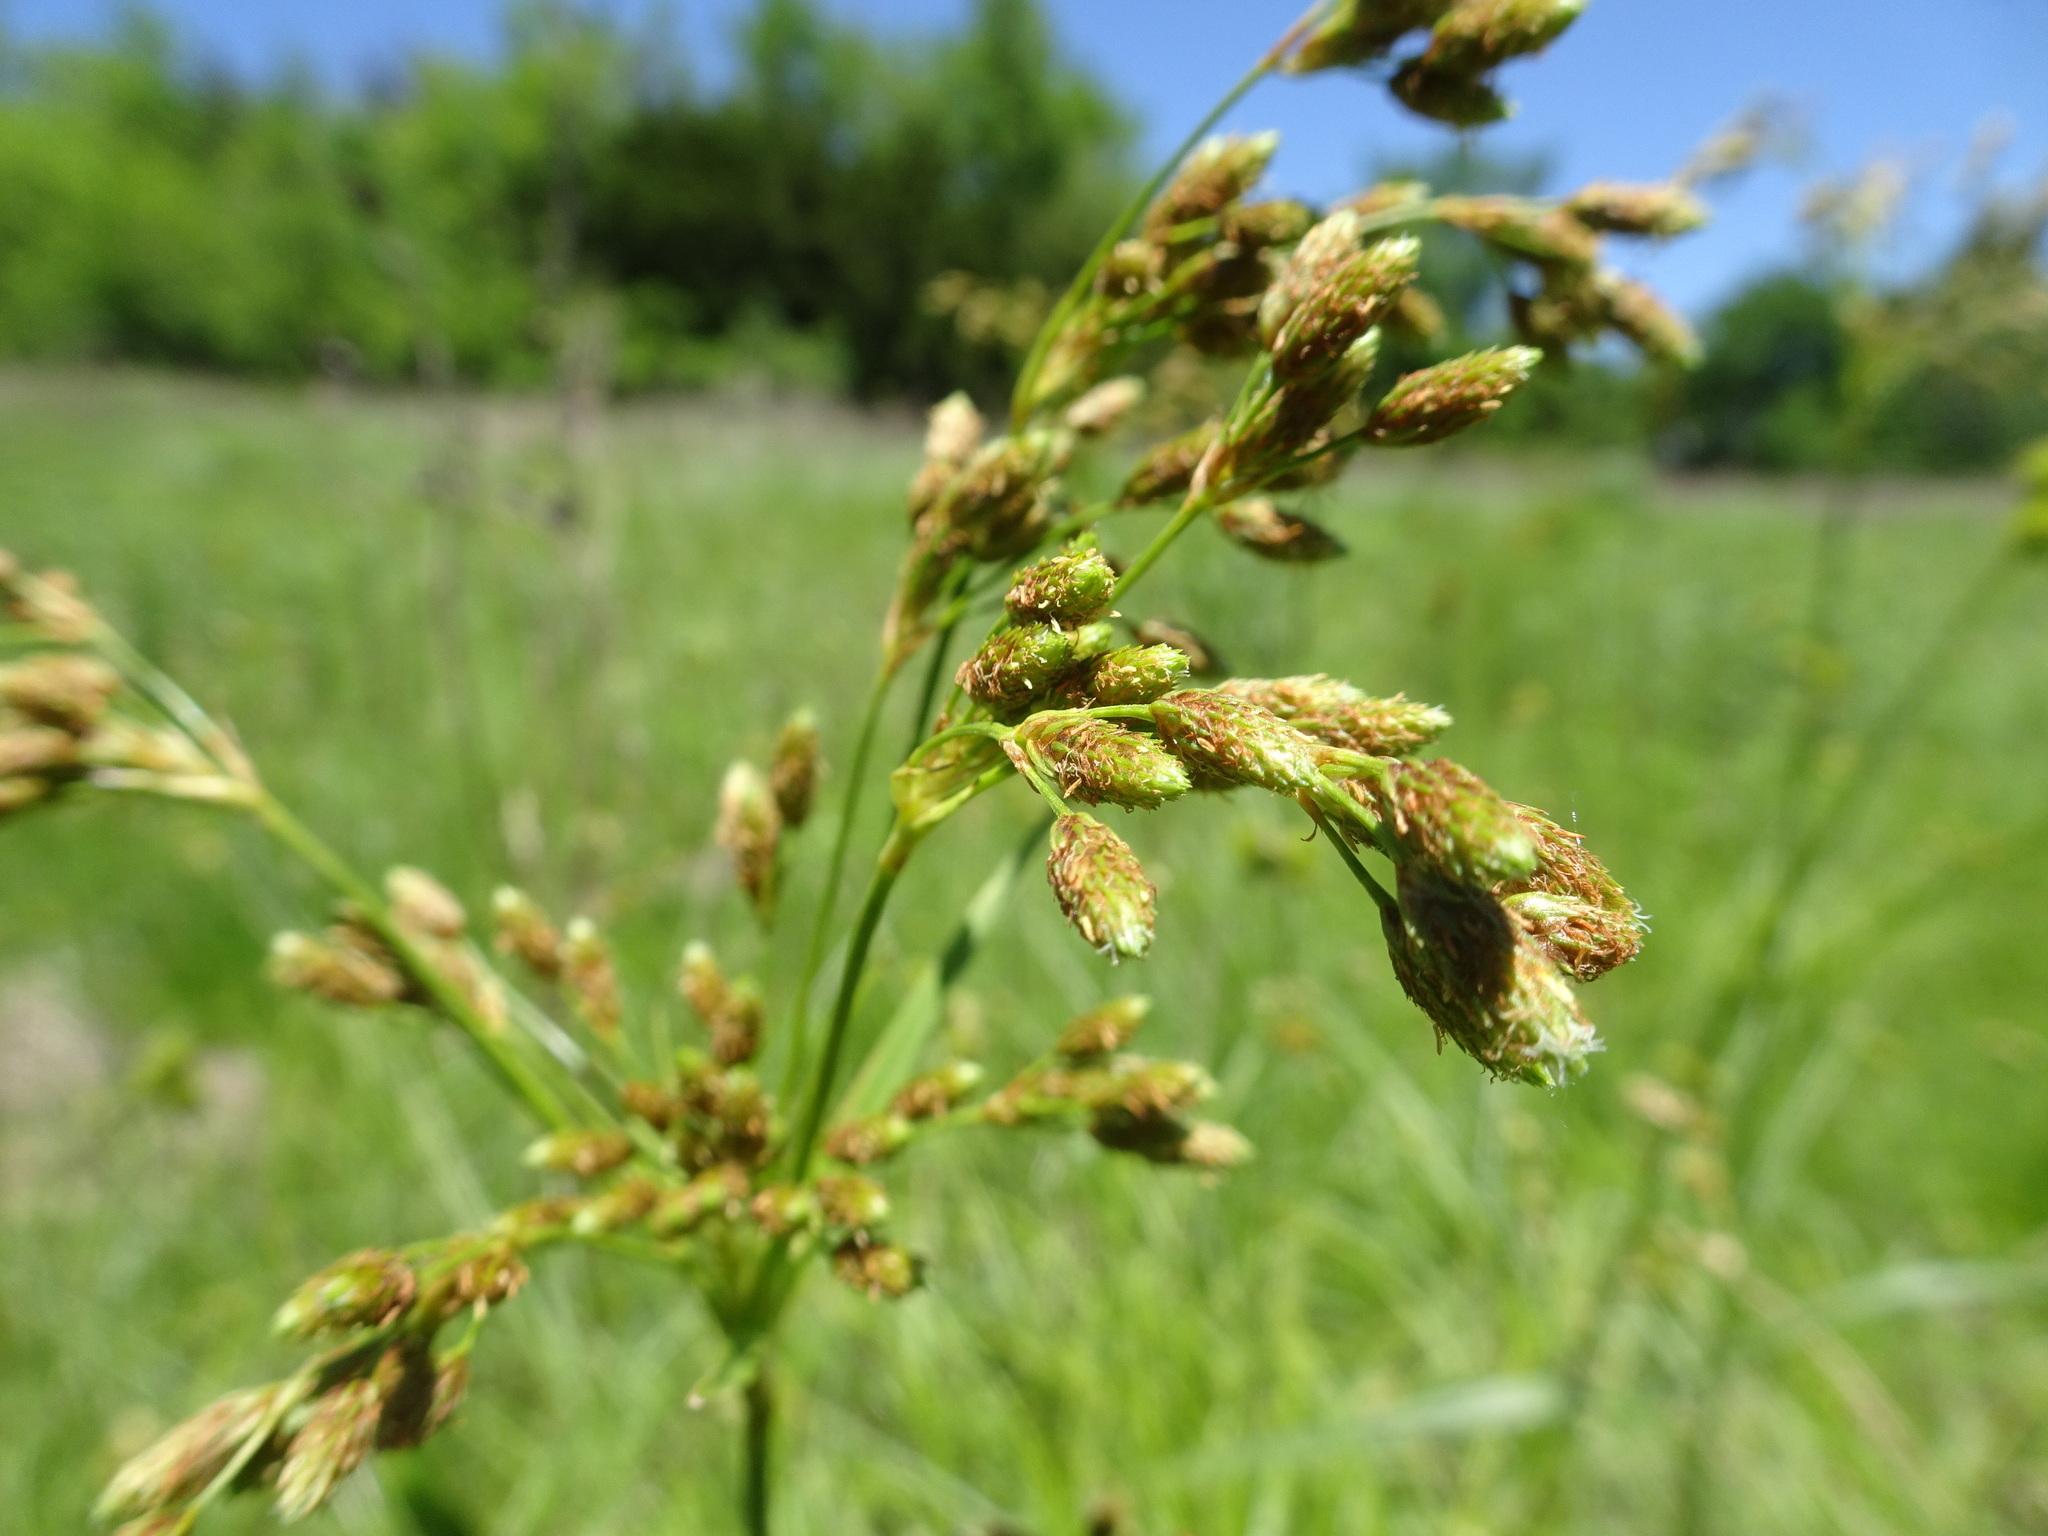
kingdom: Plantae
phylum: Tracheophyta
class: Liliopsida
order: Poales
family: Cyperaceae
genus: Scirpus
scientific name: Scirpus pendulus
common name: Nodding bulrush
